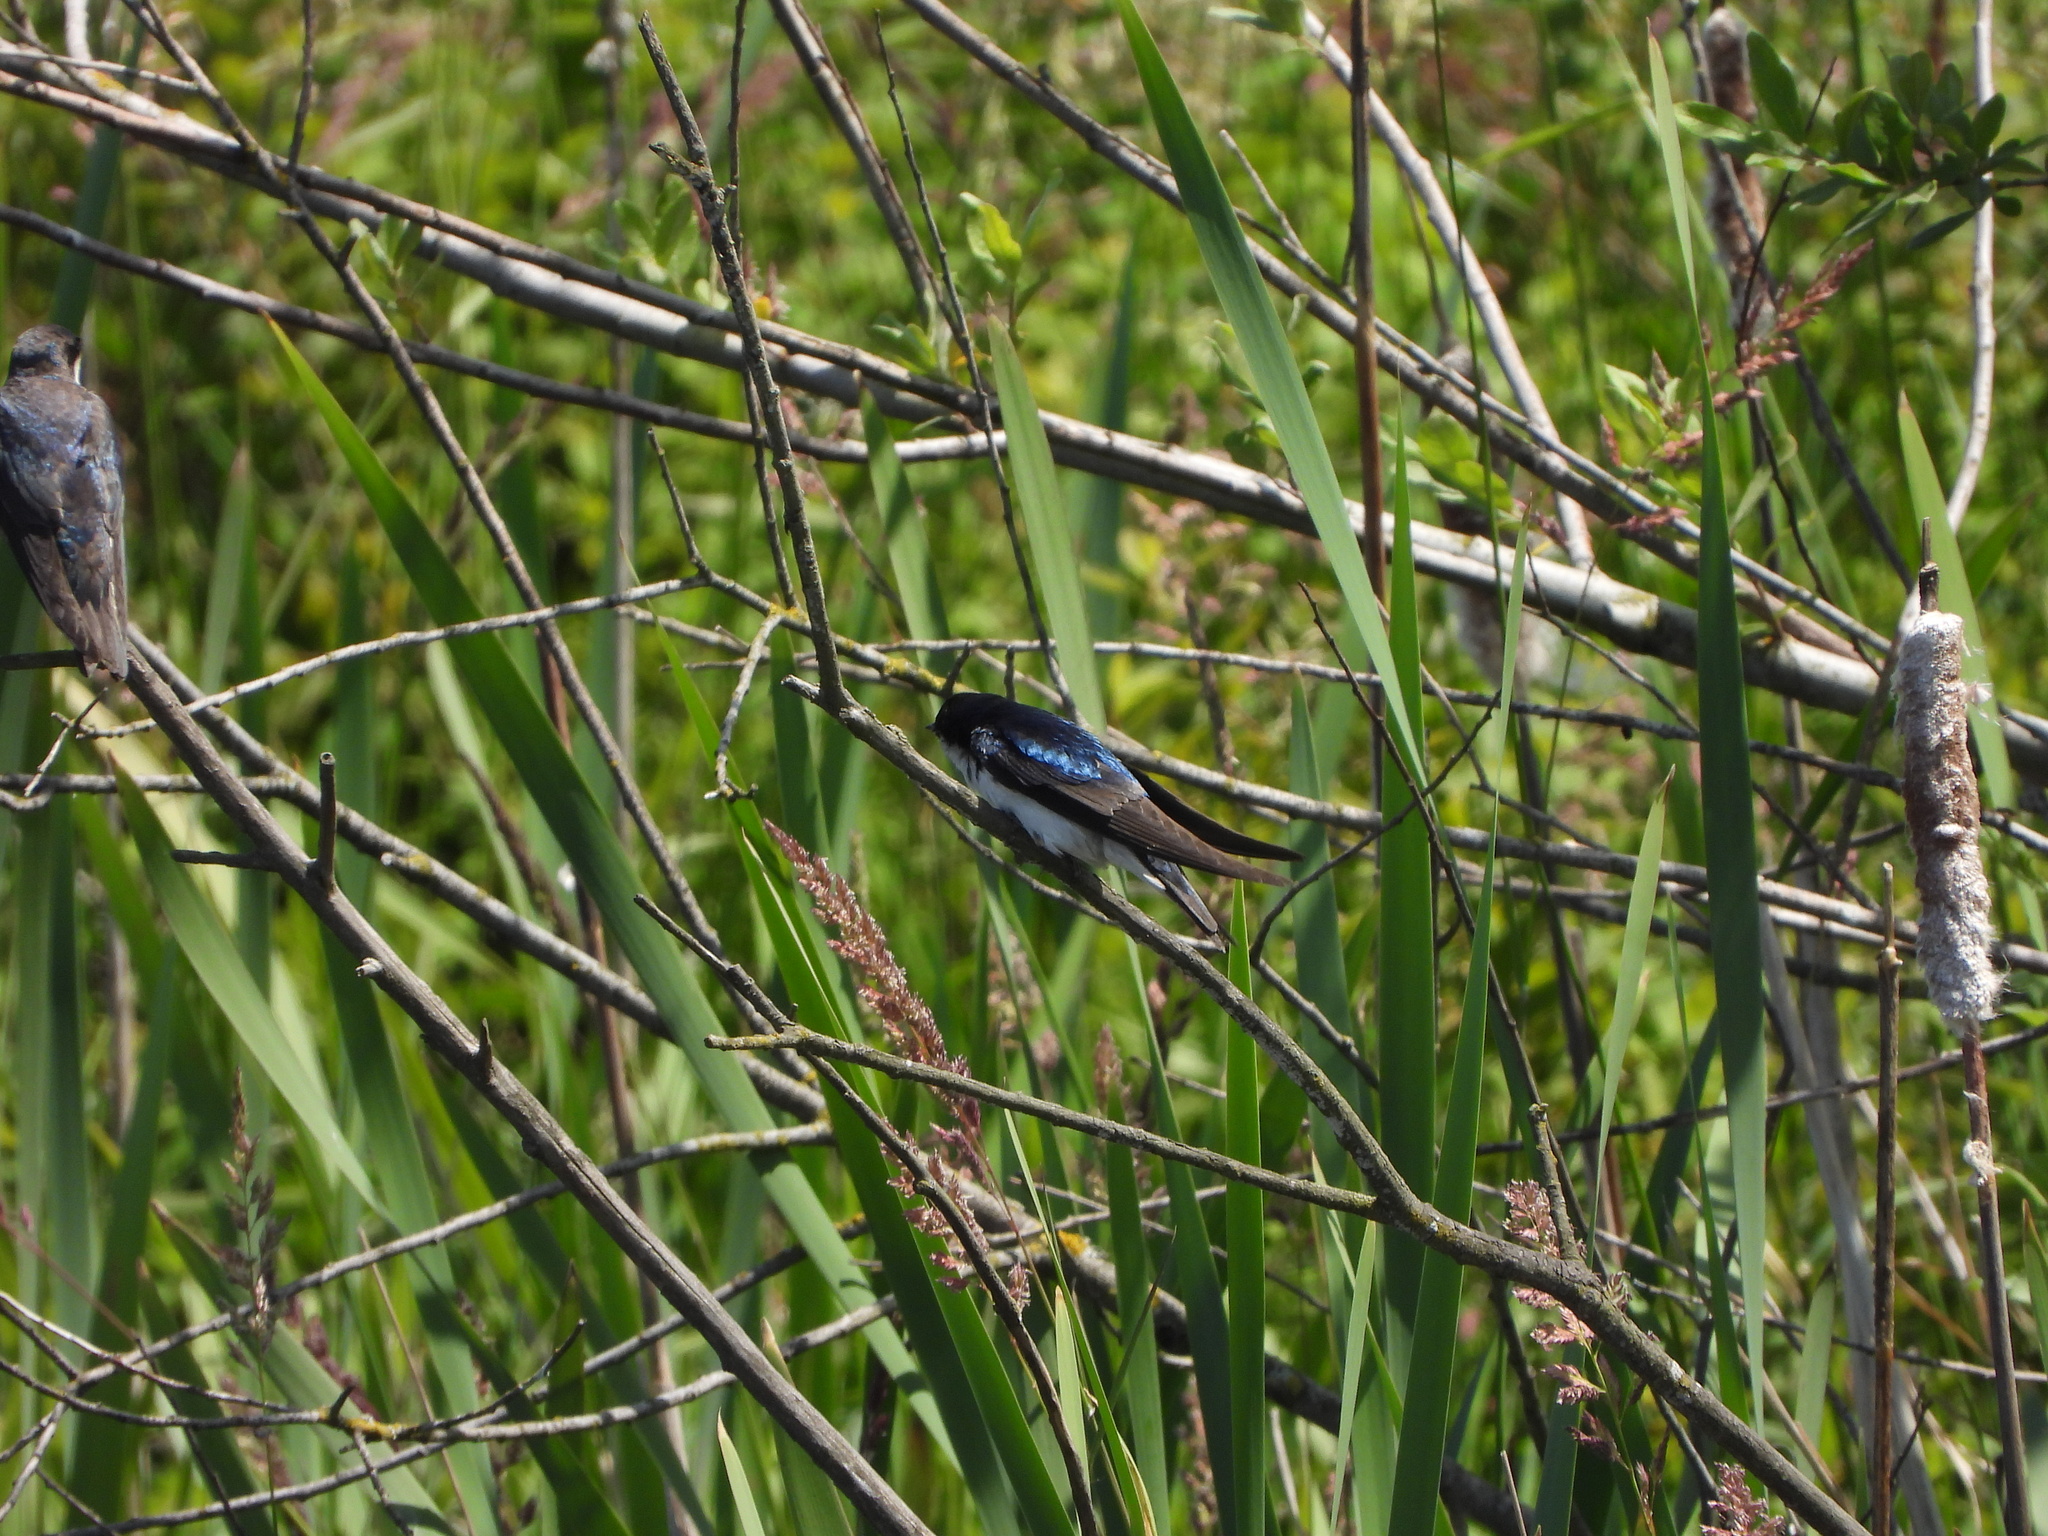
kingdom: Animalia
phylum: Chordata
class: Aves
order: Passeriformes
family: Hirundinidae
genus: Tachycineta
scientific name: Tachycineta bicolor
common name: Tree swallow
